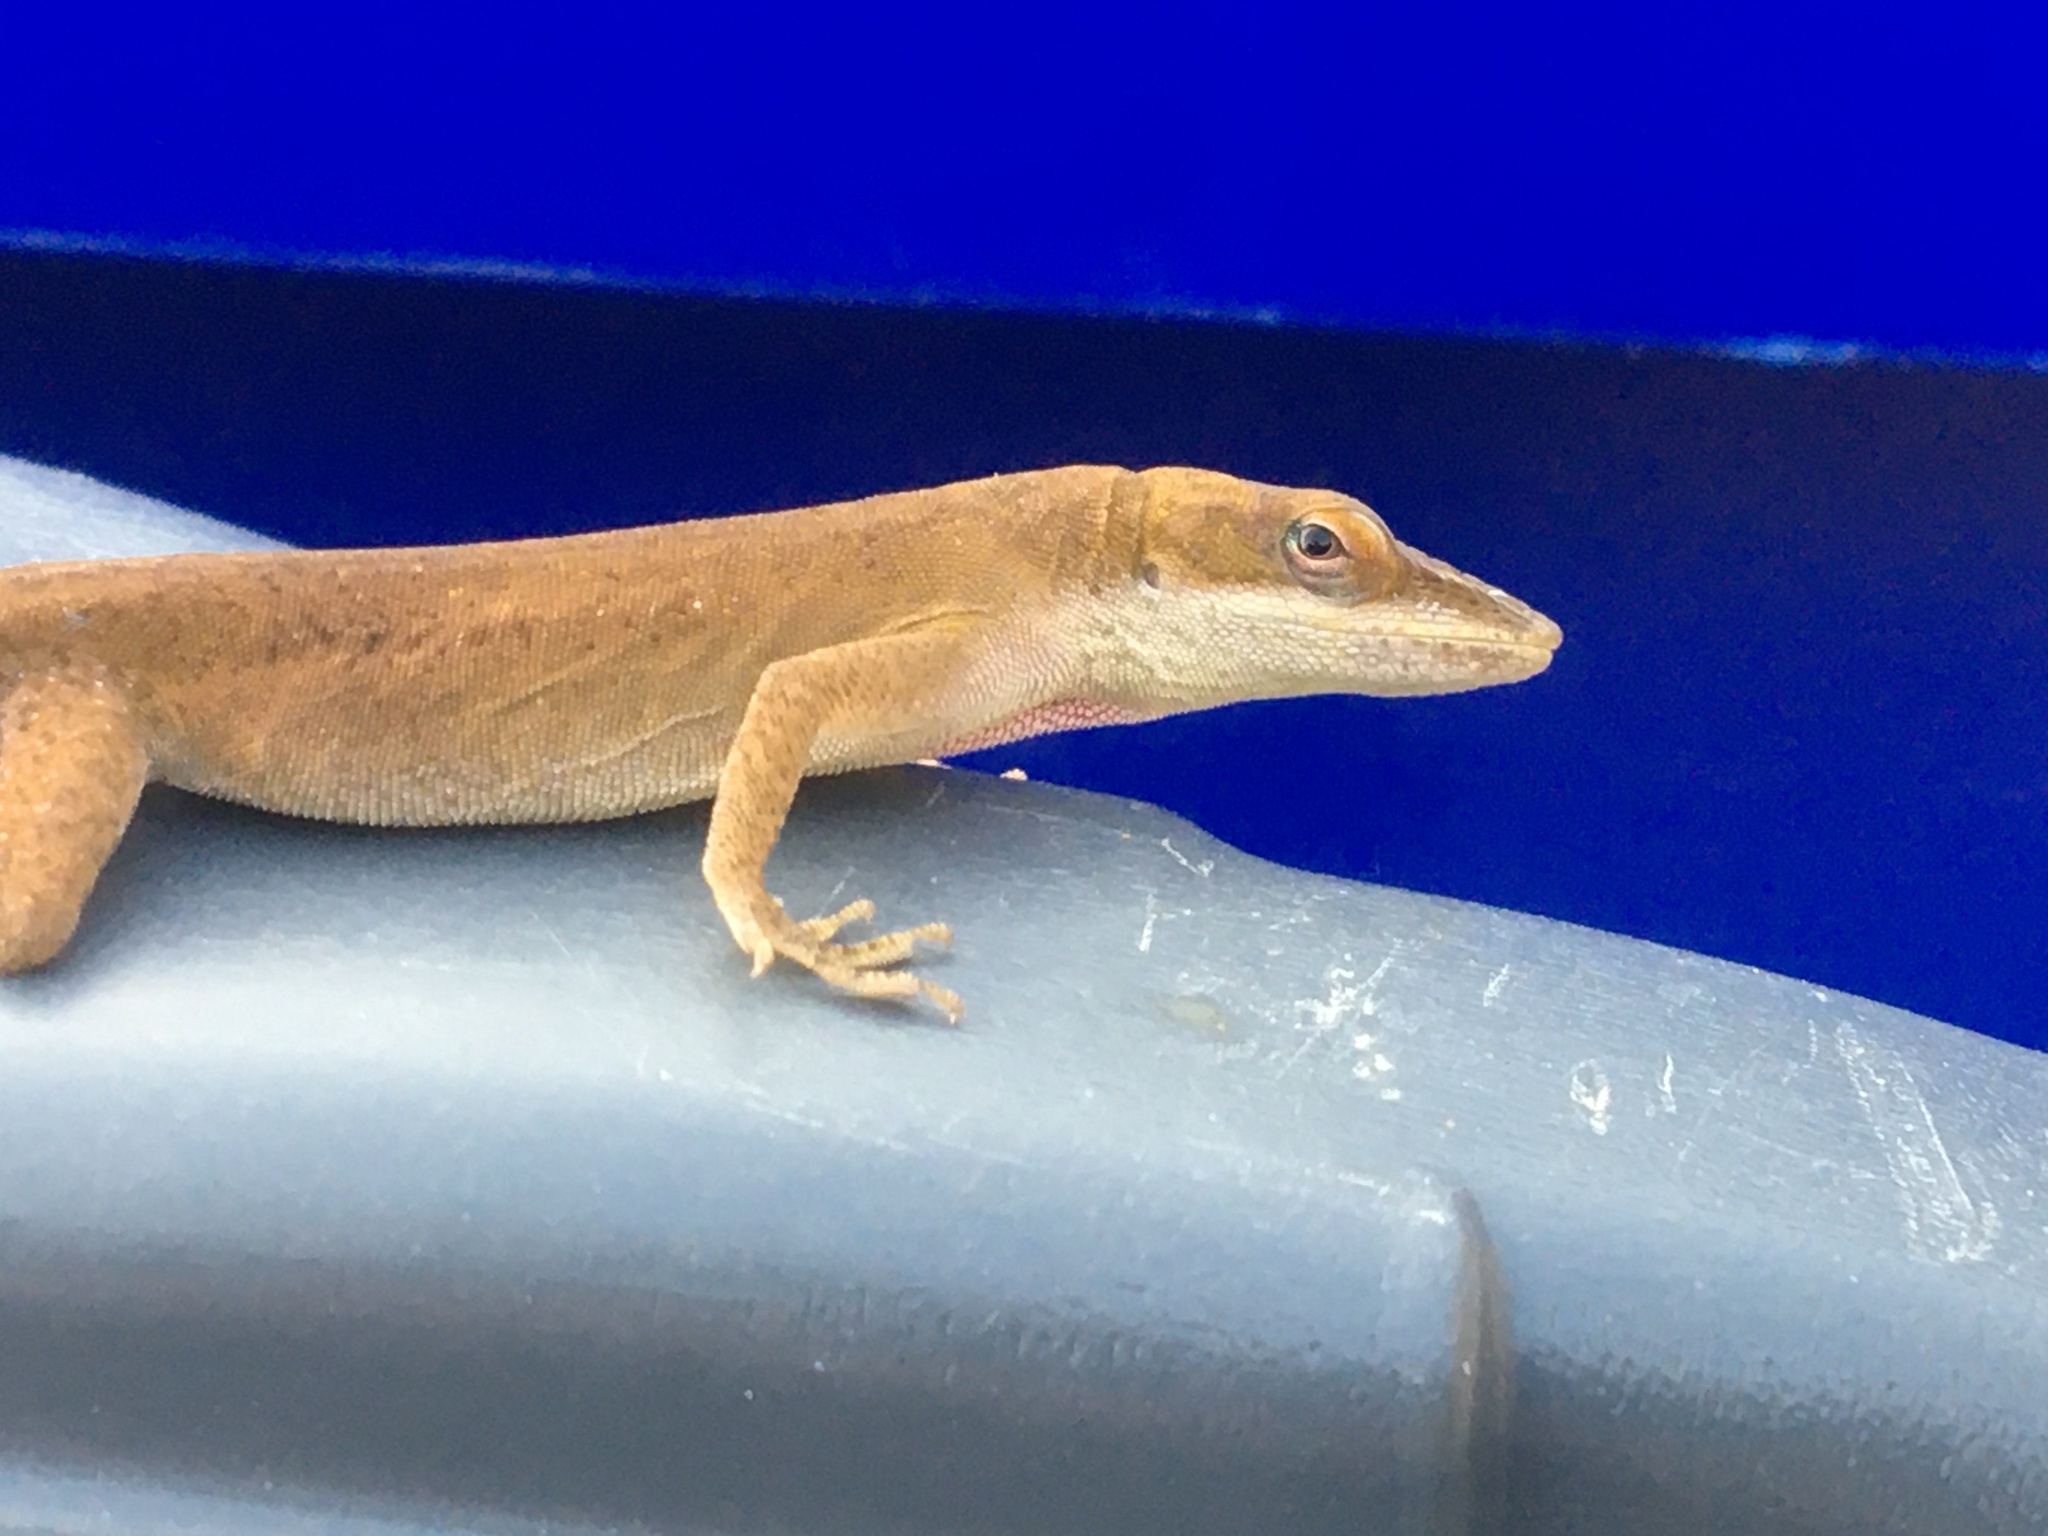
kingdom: Animalia
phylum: Chordata
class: Squamata
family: Dactyloidae
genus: Anolis
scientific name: Anolis carolinensis
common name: Green anole
